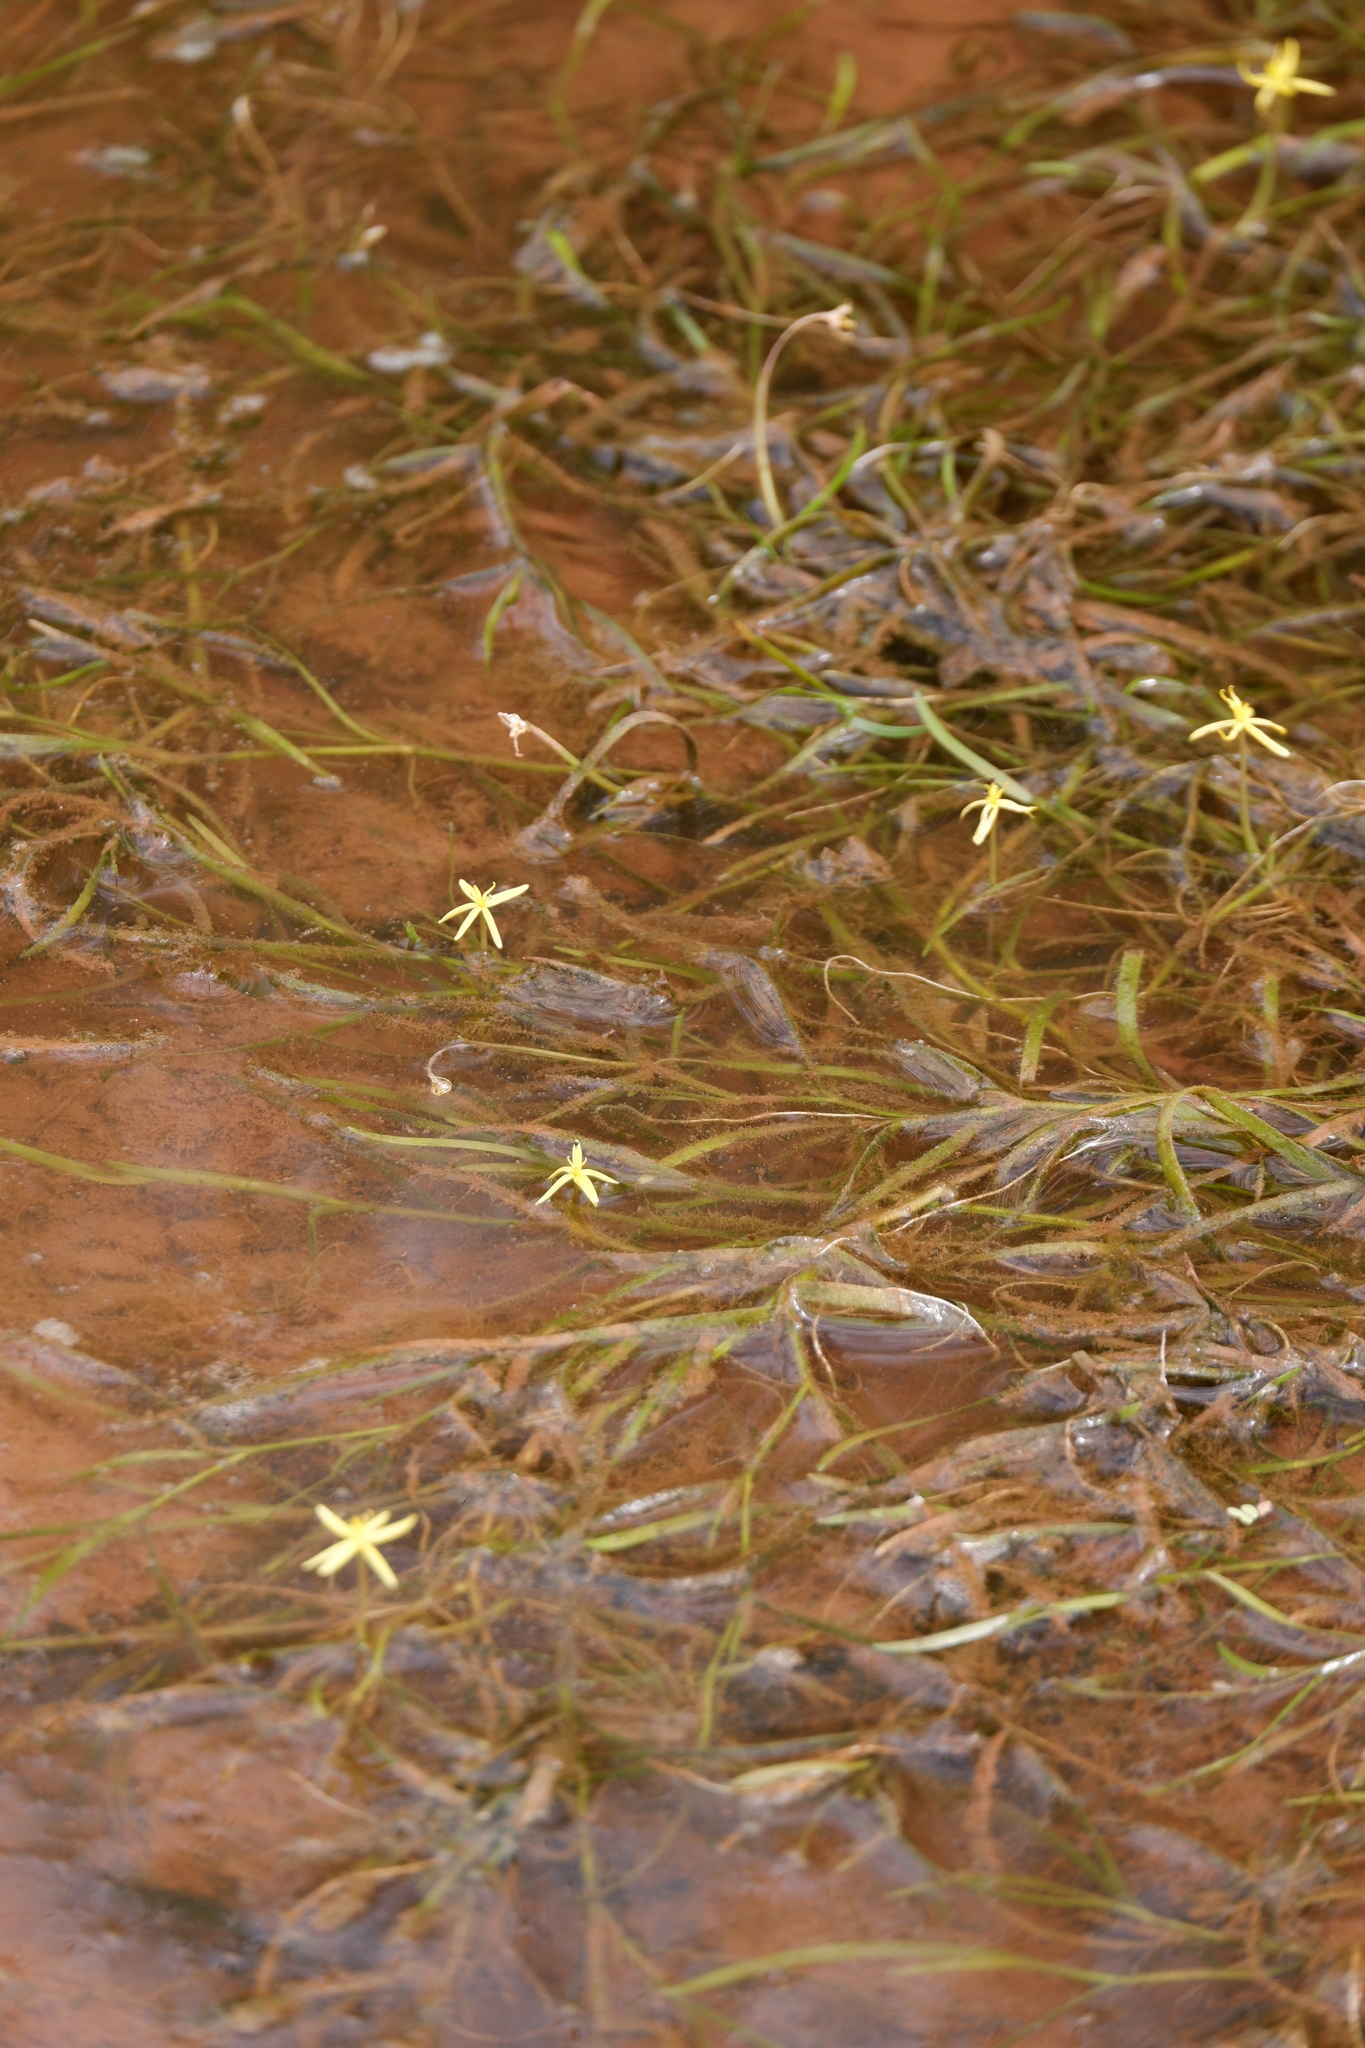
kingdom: Plantae
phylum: Tracheophyta
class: Liliopsida
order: Commelinales
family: Pontederiaceae
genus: Heteranthera
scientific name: Heteranthera dubia
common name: Grass-leaved mud plantain
